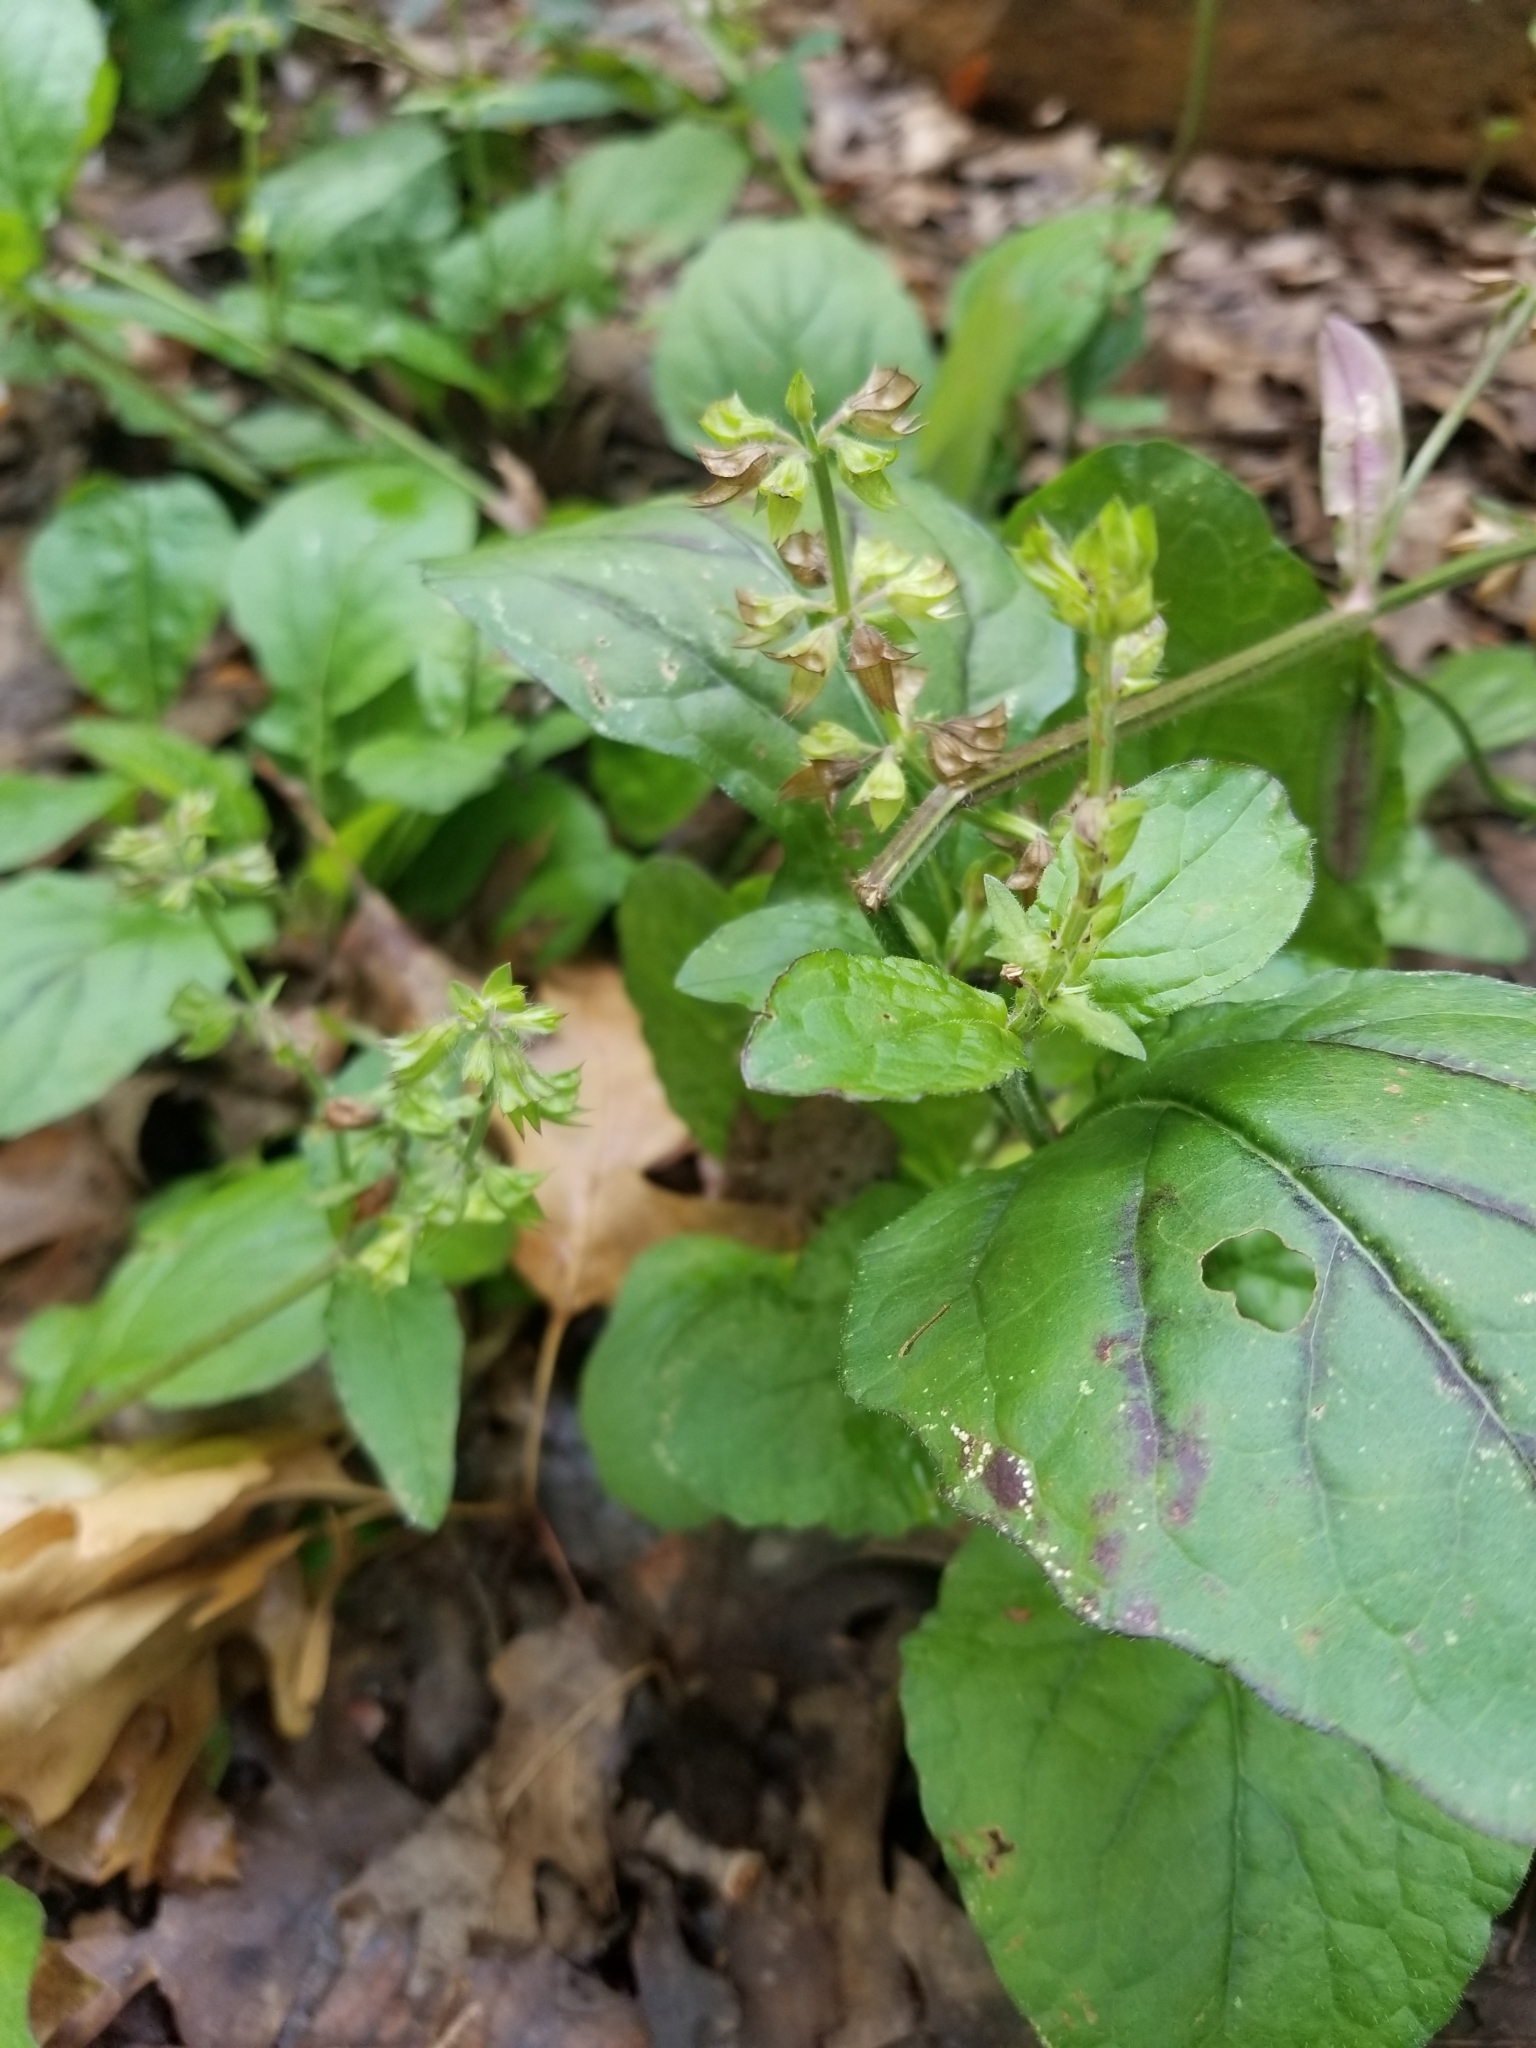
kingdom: Plantae
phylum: Tracheophyta
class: Magnoliopsida
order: Lamiales
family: Lamiaceae
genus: Salvia
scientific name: Salvia lyrata
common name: Cancerweed
